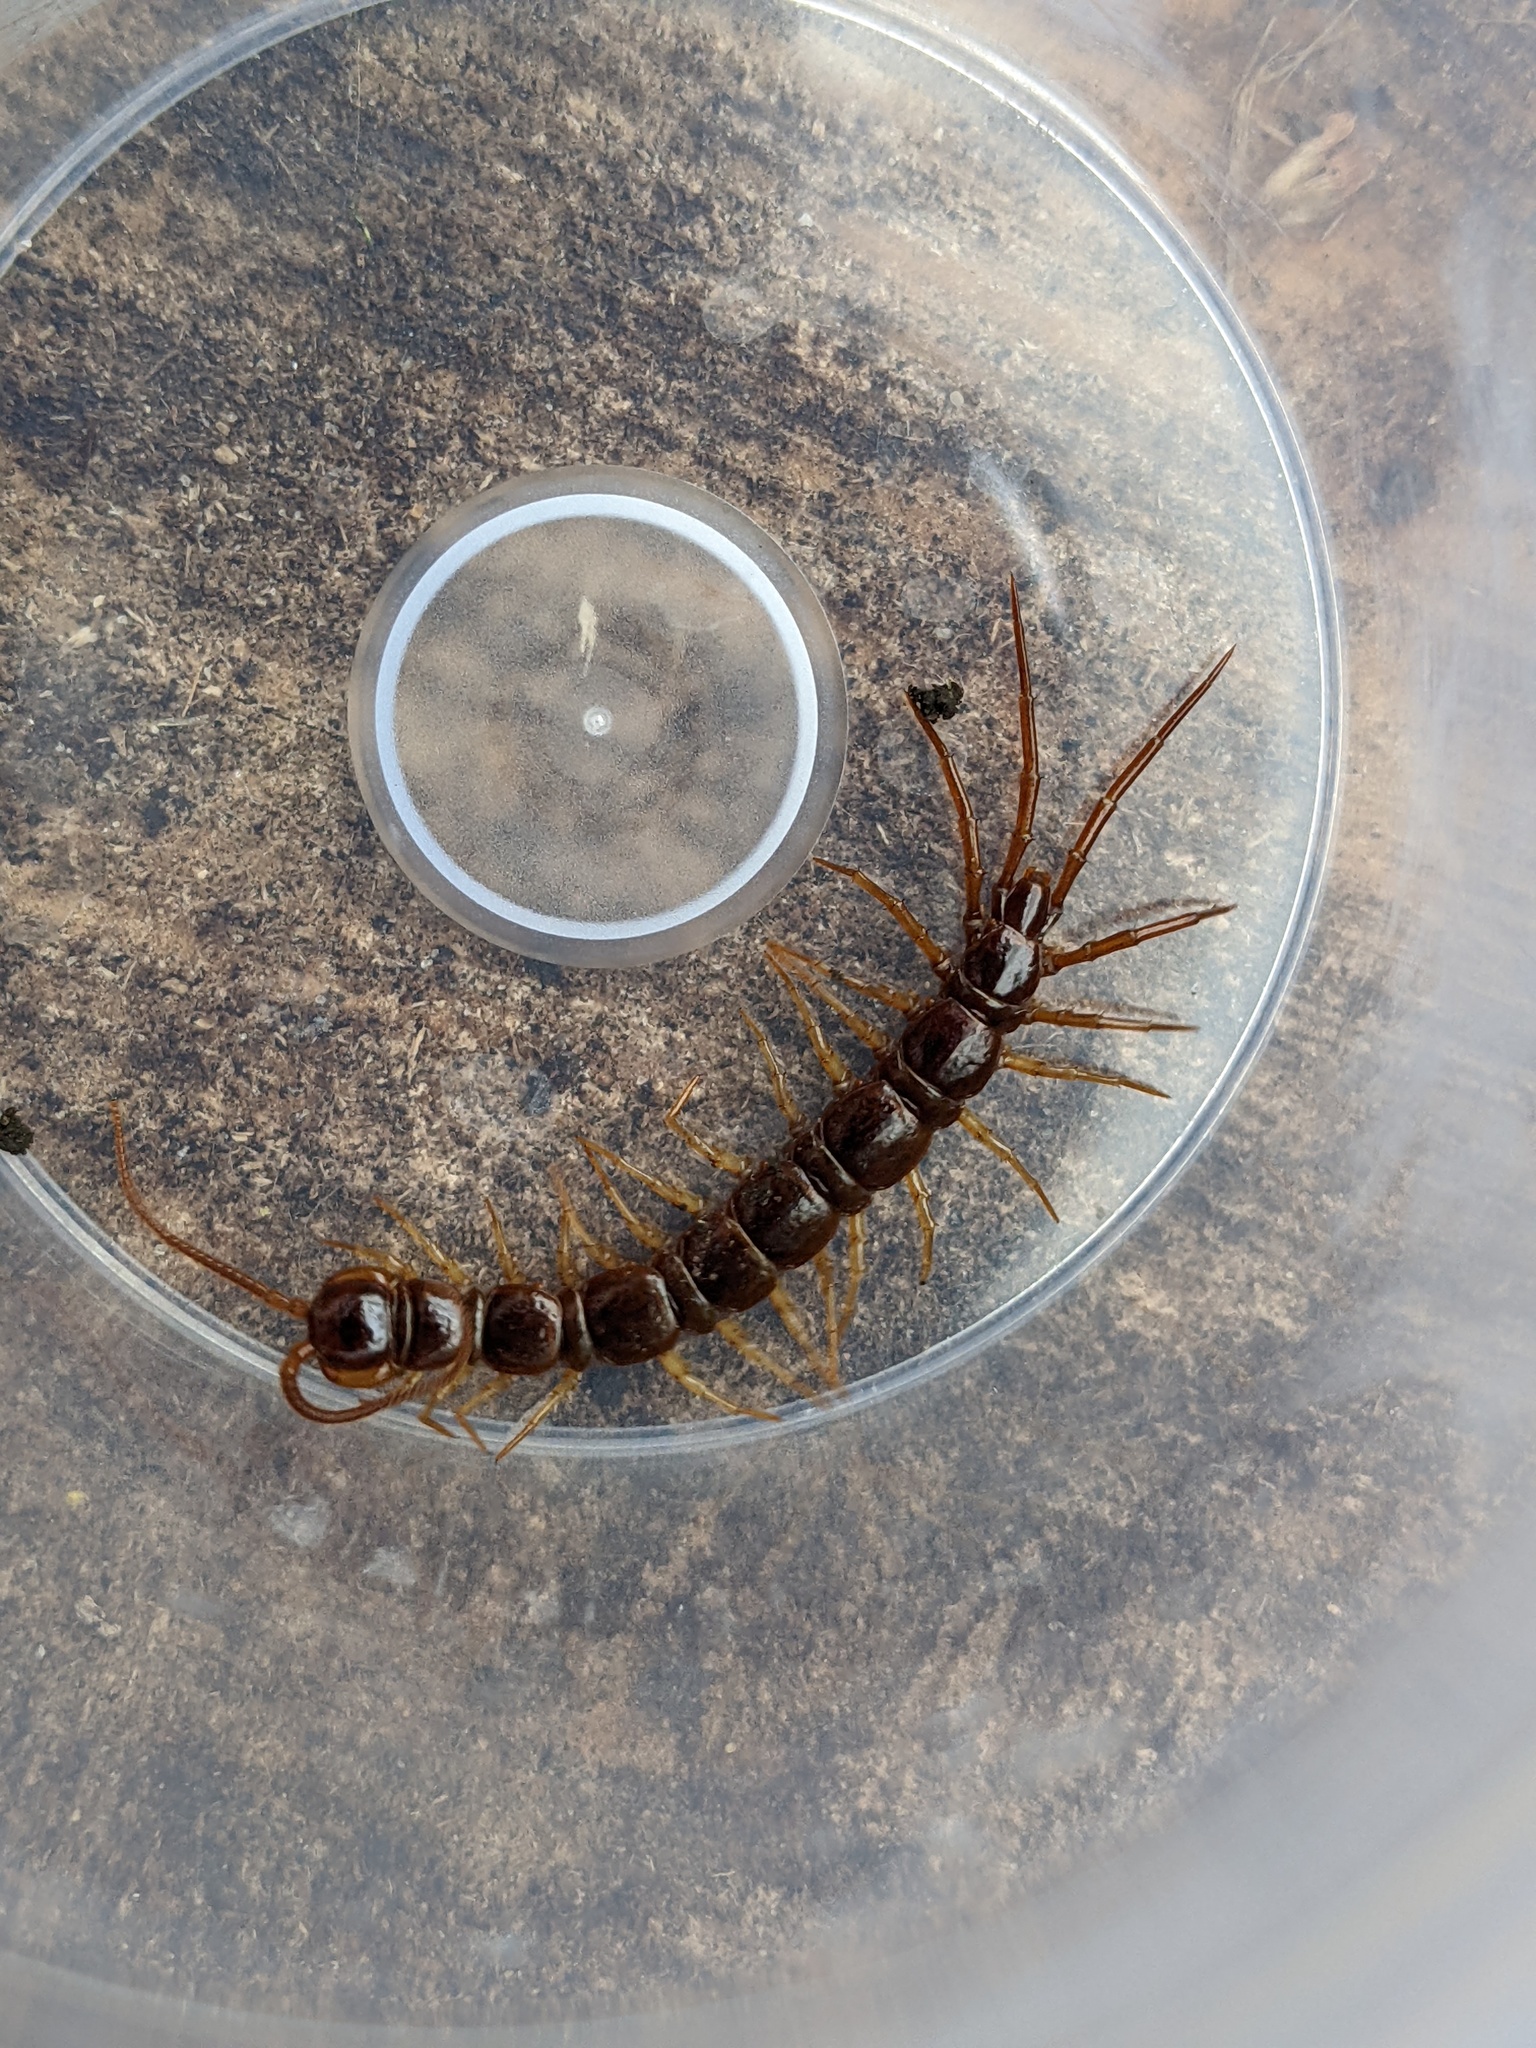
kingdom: Animalia
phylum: Arthropoda
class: Chilopoda
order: Lithobiomorpha
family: Lithobiidae
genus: Lithobius
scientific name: Lithobius forficatus
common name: Centipede
